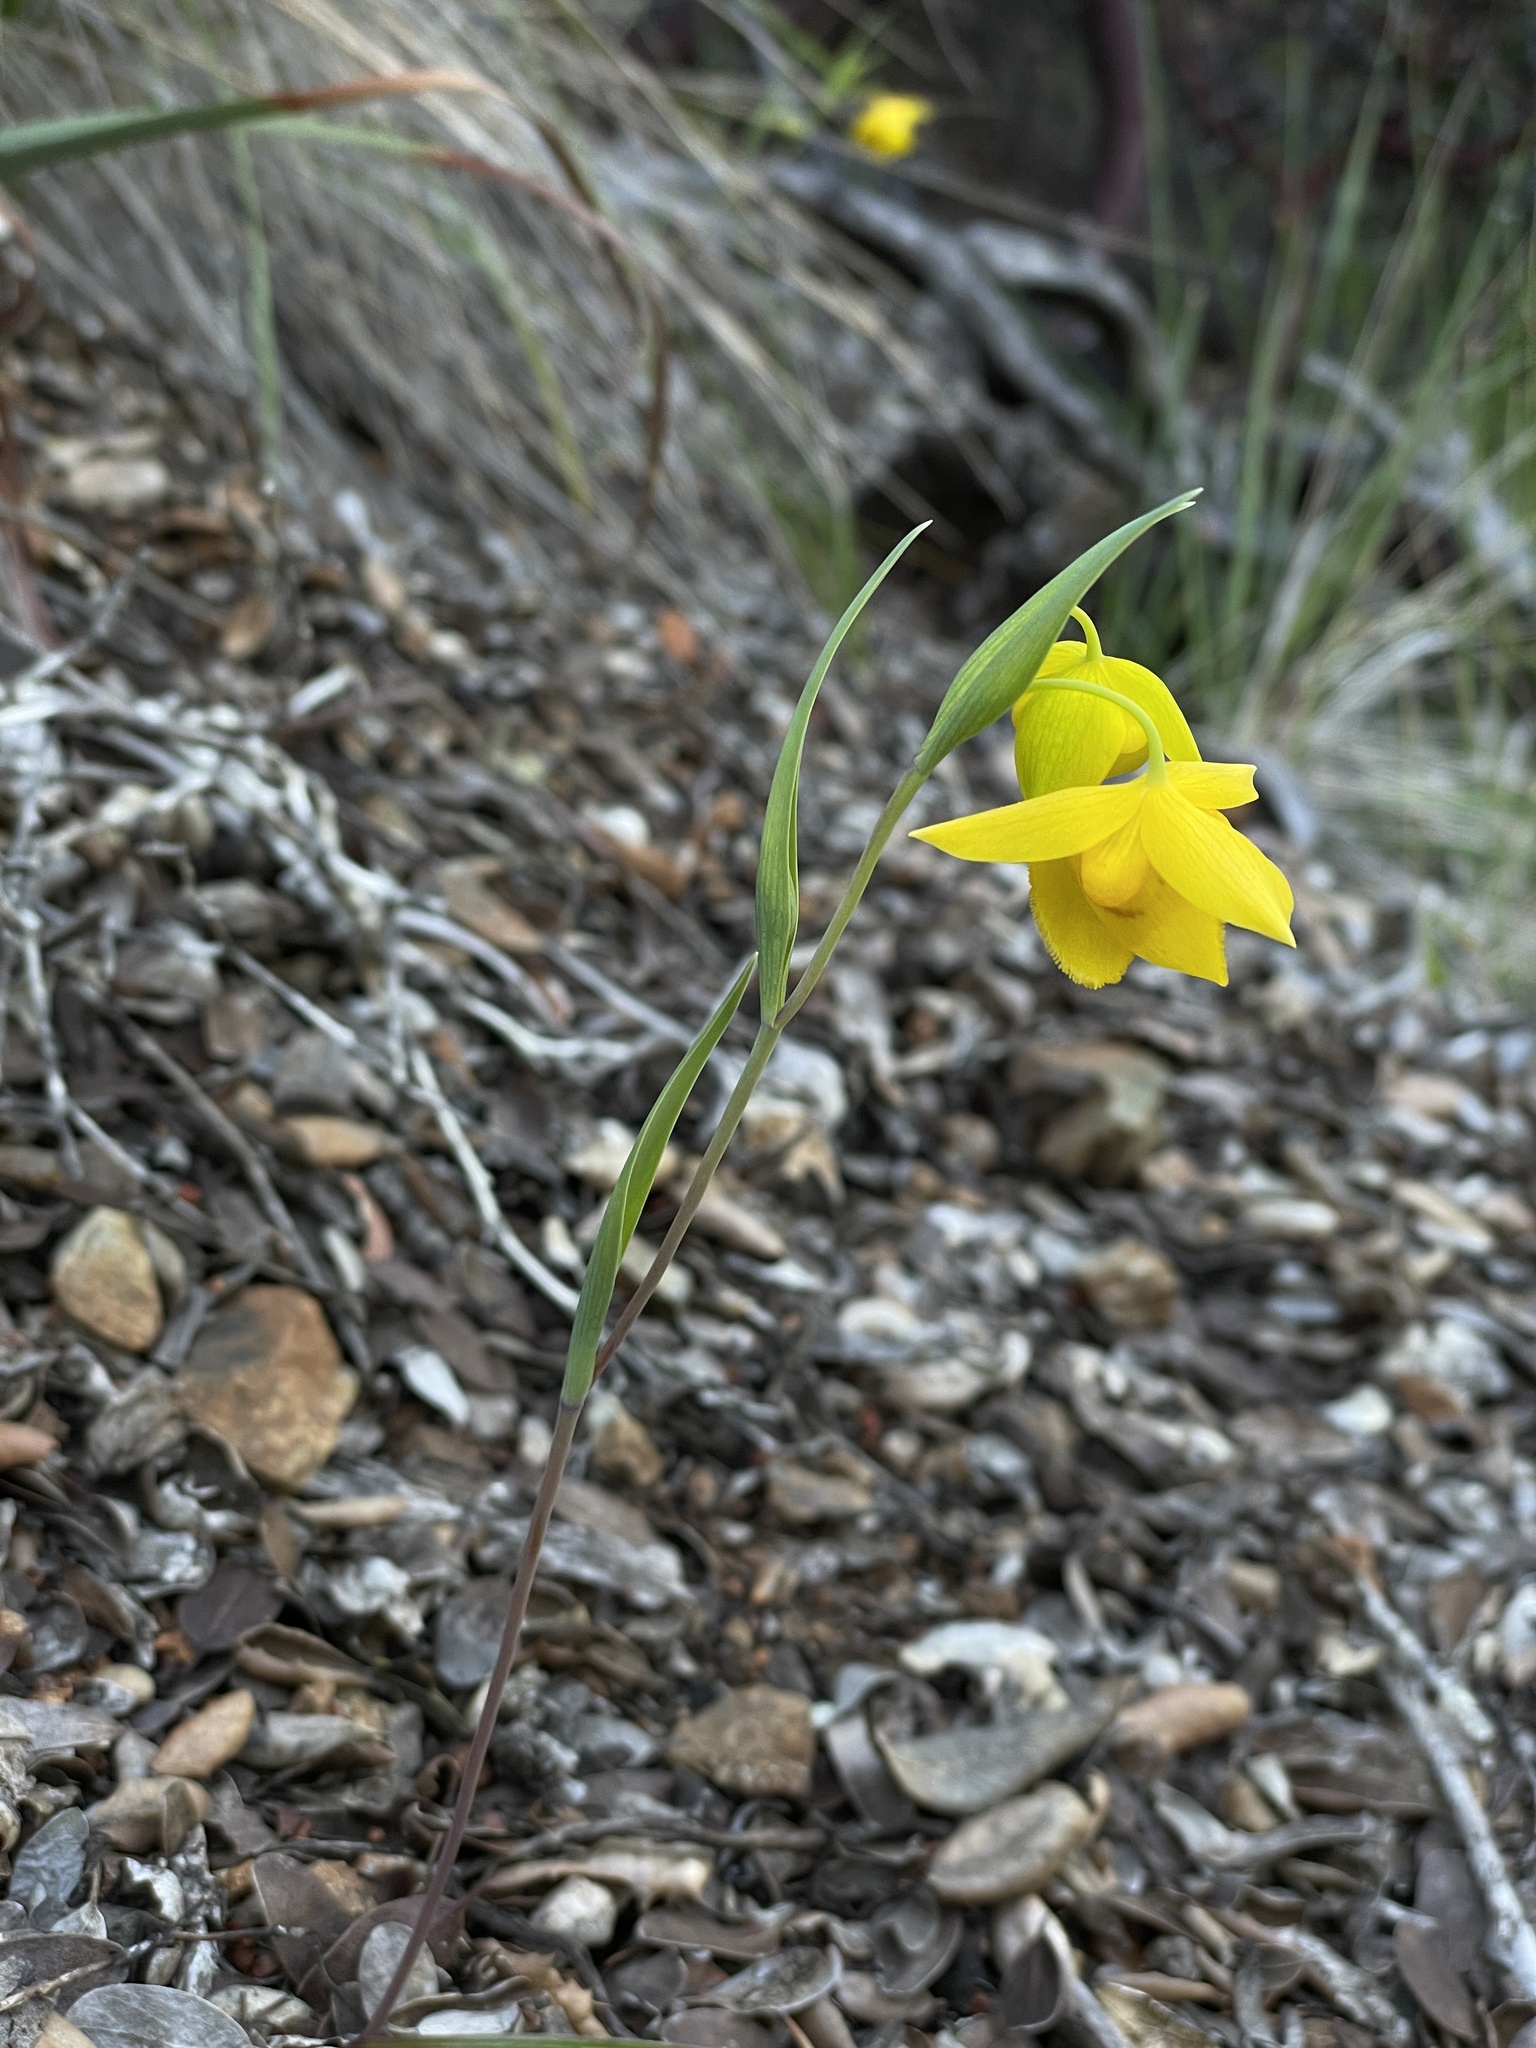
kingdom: Plantae
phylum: Tracheophyta
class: Liliopsida
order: Liliales
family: Liliaceae
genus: Calochortus
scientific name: Calochortus amabilis
